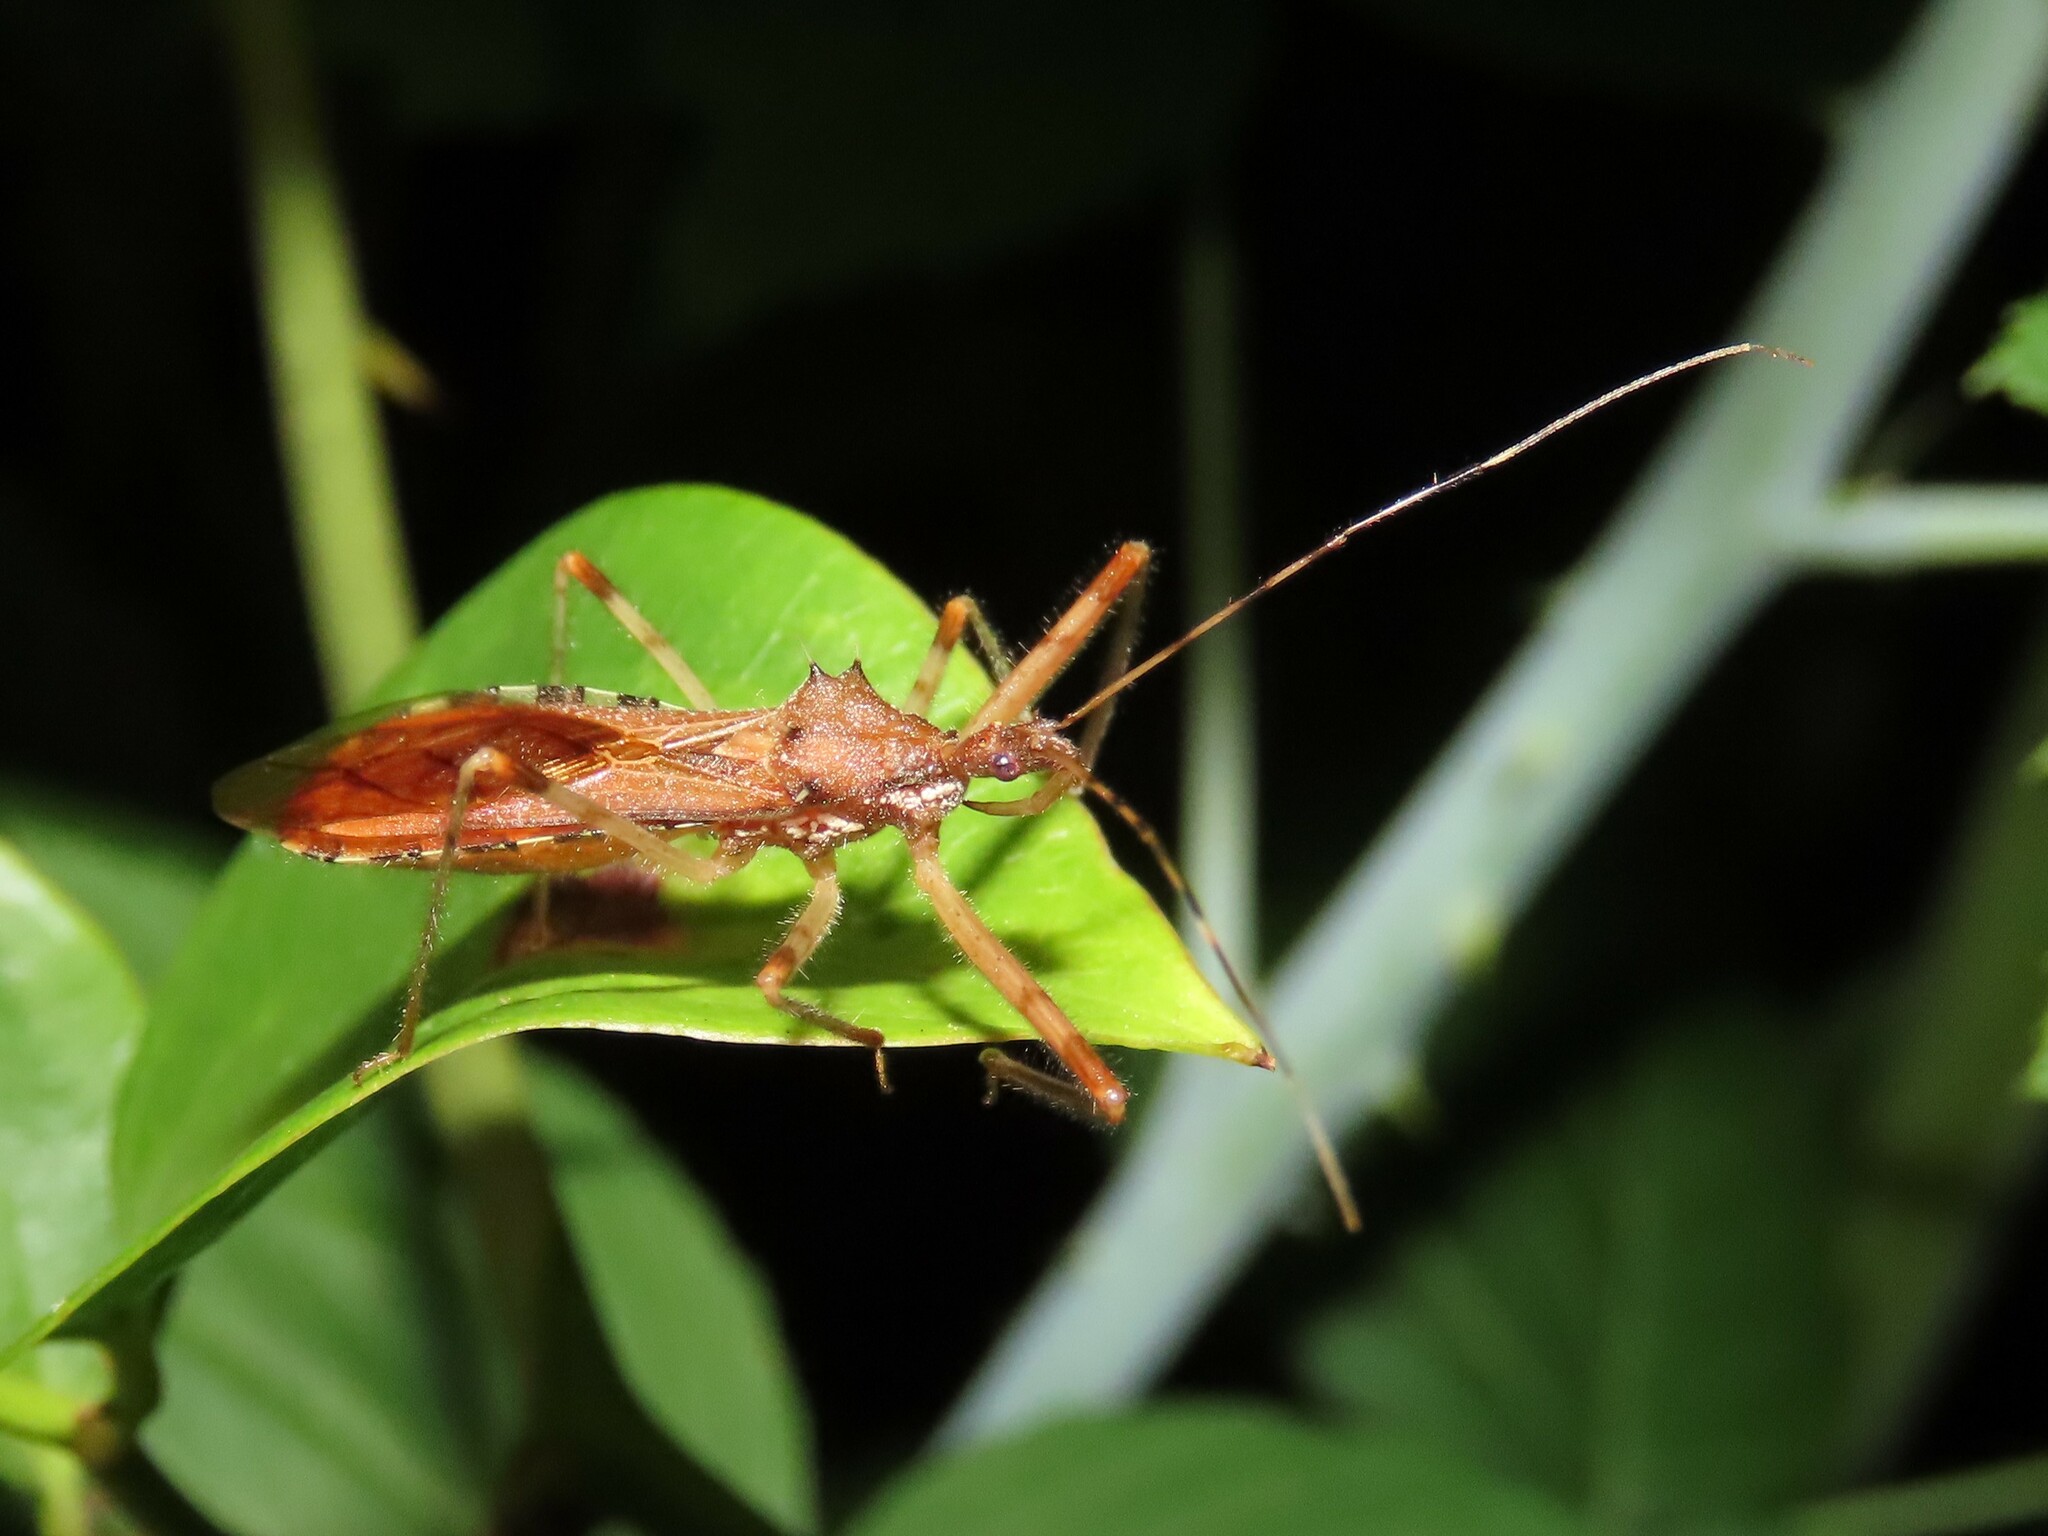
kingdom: Animalia
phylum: Arthropoda
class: Insecta
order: Hemiptera
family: Reduviidae
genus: Rocconota
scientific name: Rocconota annulicornis
